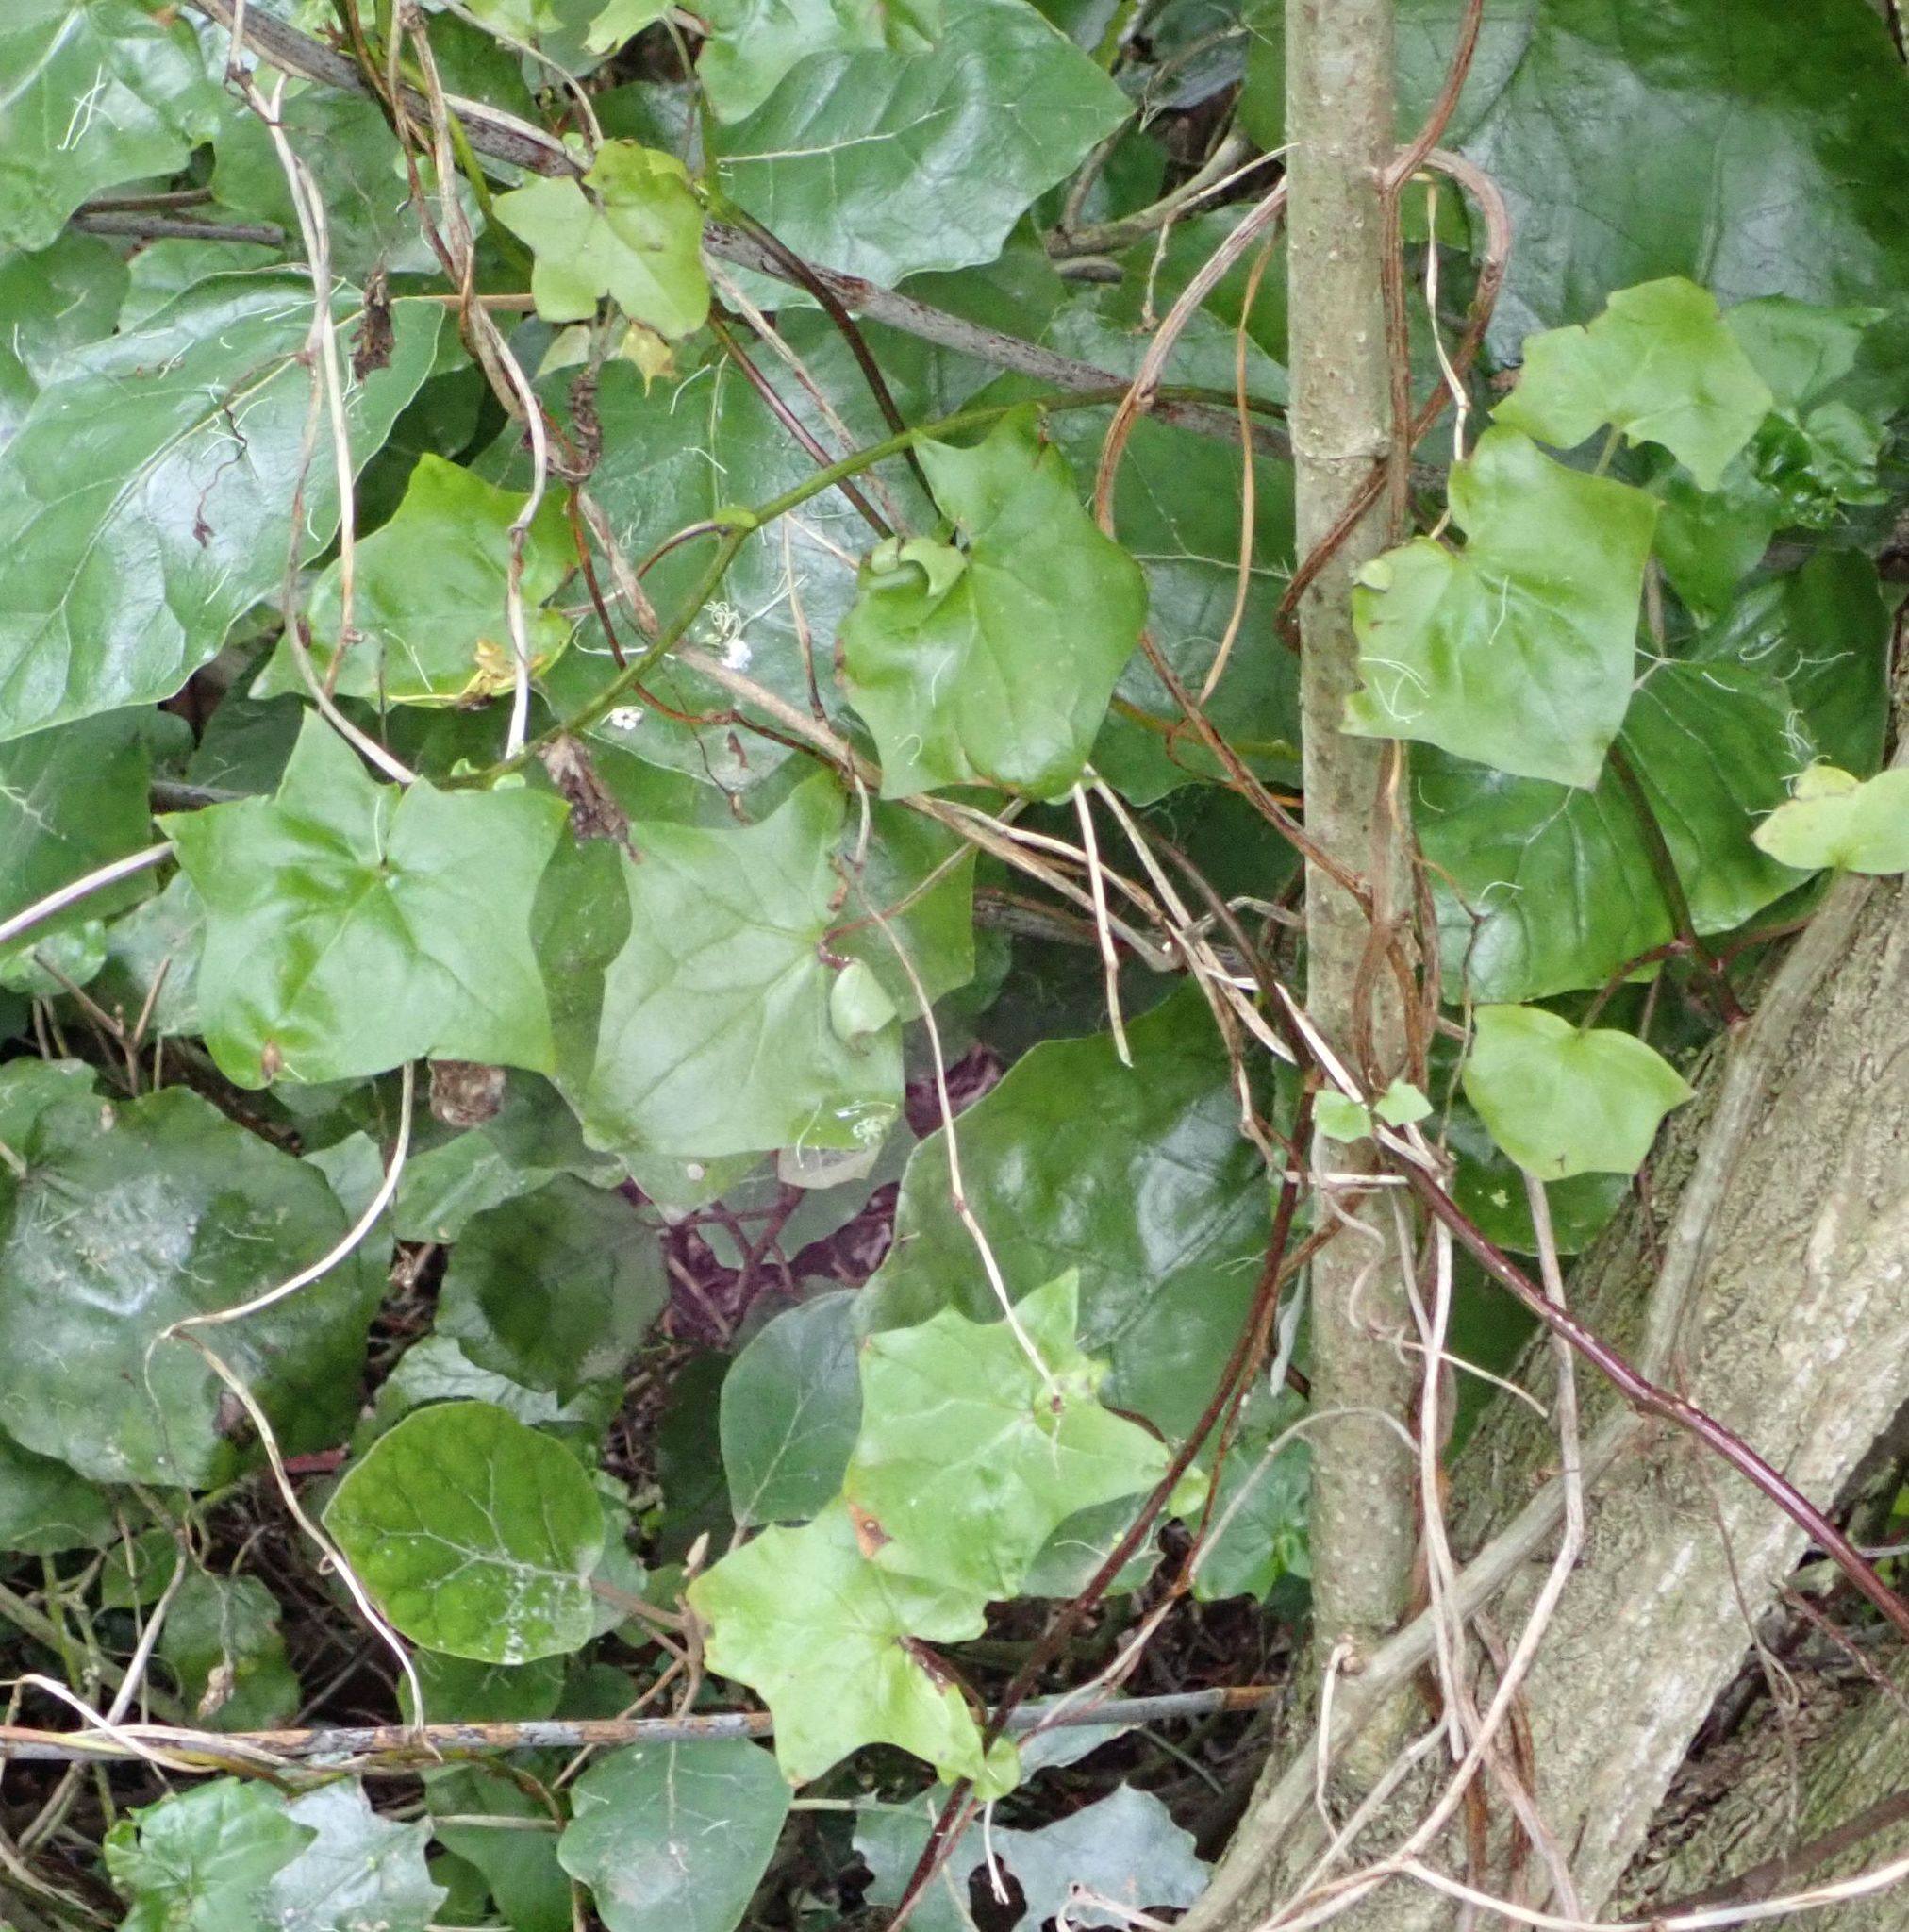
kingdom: Plantae
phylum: Tracheophyta
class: Magnoliopsida
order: Asterales
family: Asteraceae
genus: Delairea
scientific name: Delairea odorata
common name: Cape-ivy
